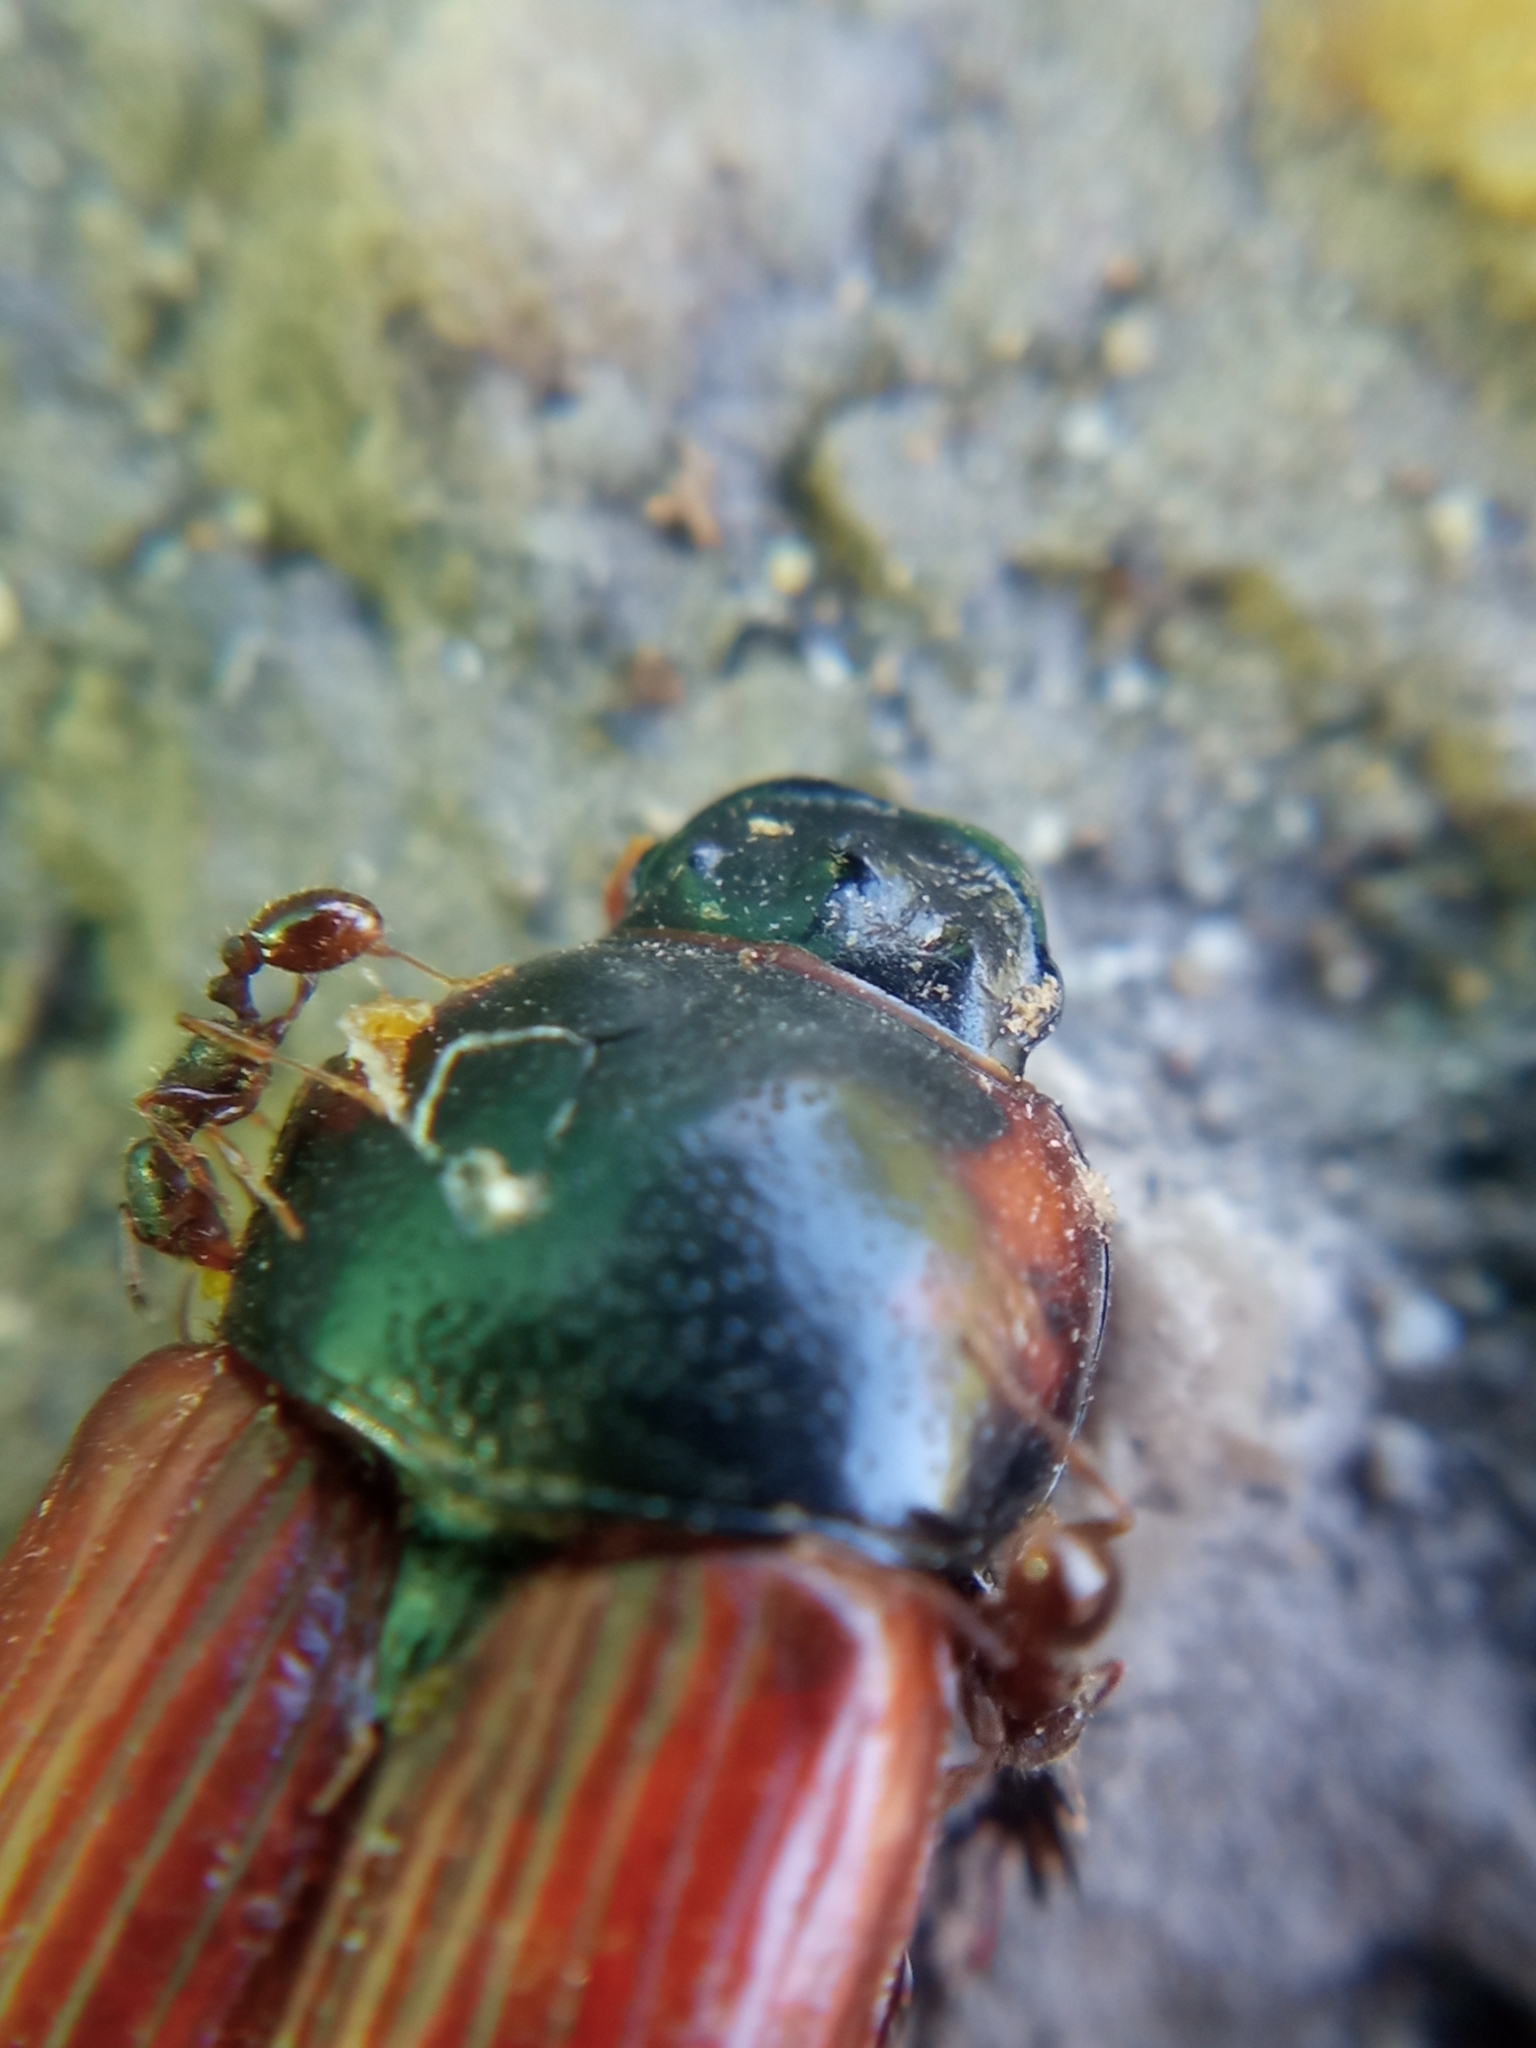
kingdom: Animalia
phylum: Arthropoda
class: Insecta
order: Coleoptera
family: Scarabaeidae
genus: Coprimorphus
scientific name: Coprimorphus scrutator
